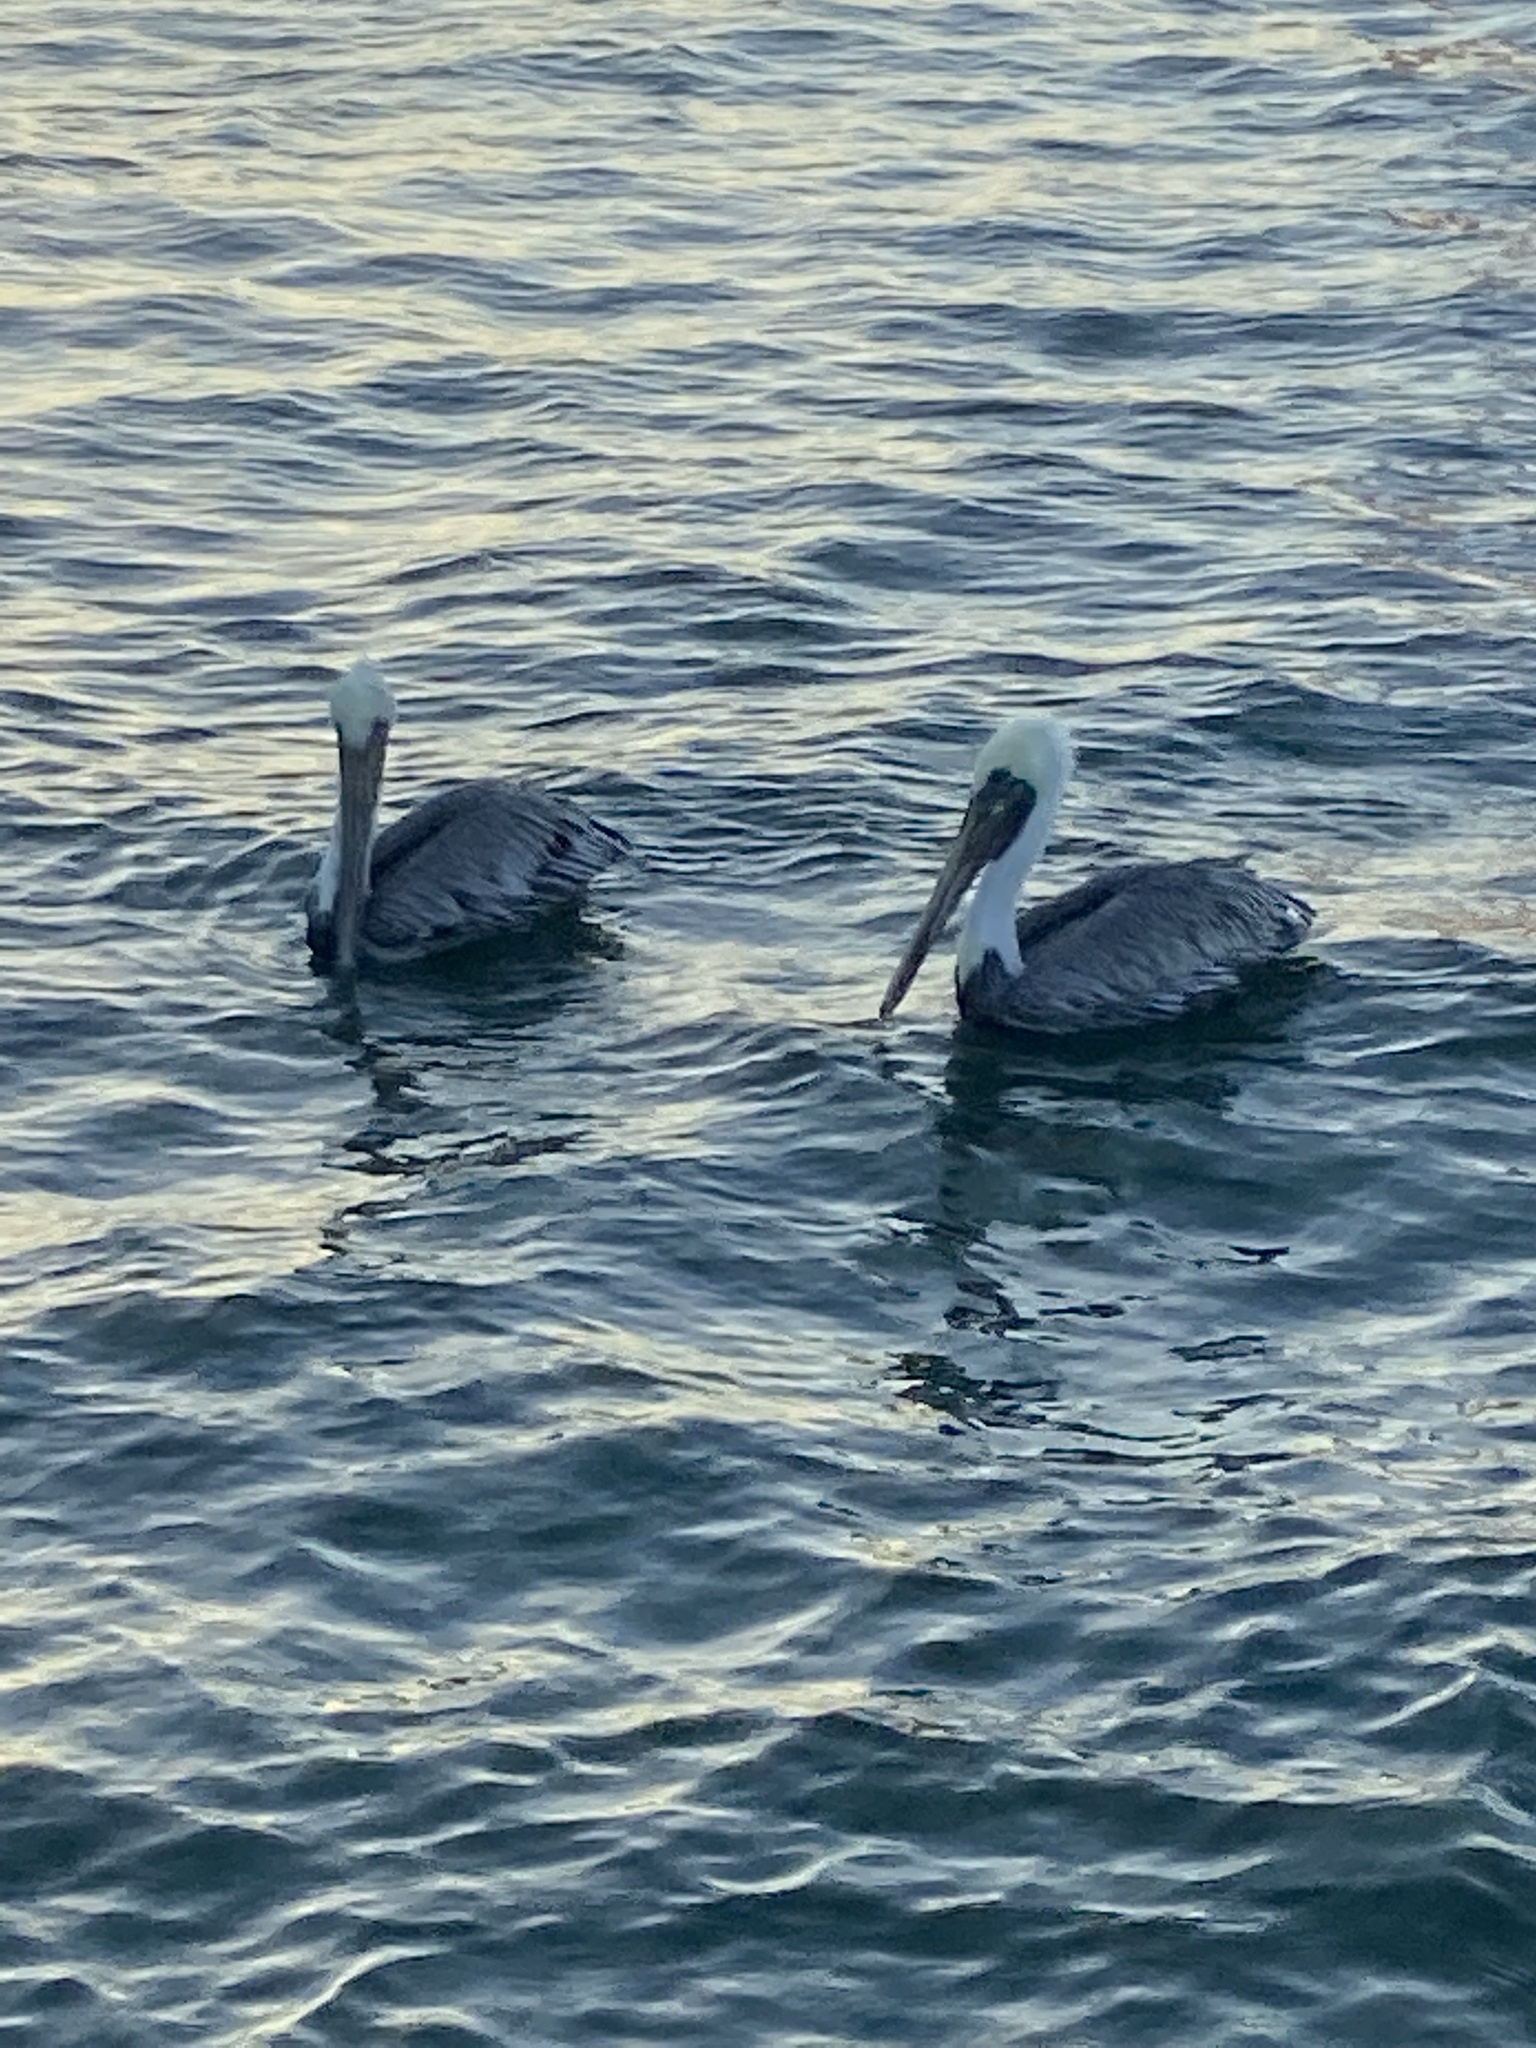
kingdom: Animalia
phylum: Chordata
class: Aves
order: Pelecaniformes
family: Pelecanidae
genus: Pelecanus
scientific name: Pelecanus occidentalis
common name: Brown pelican
